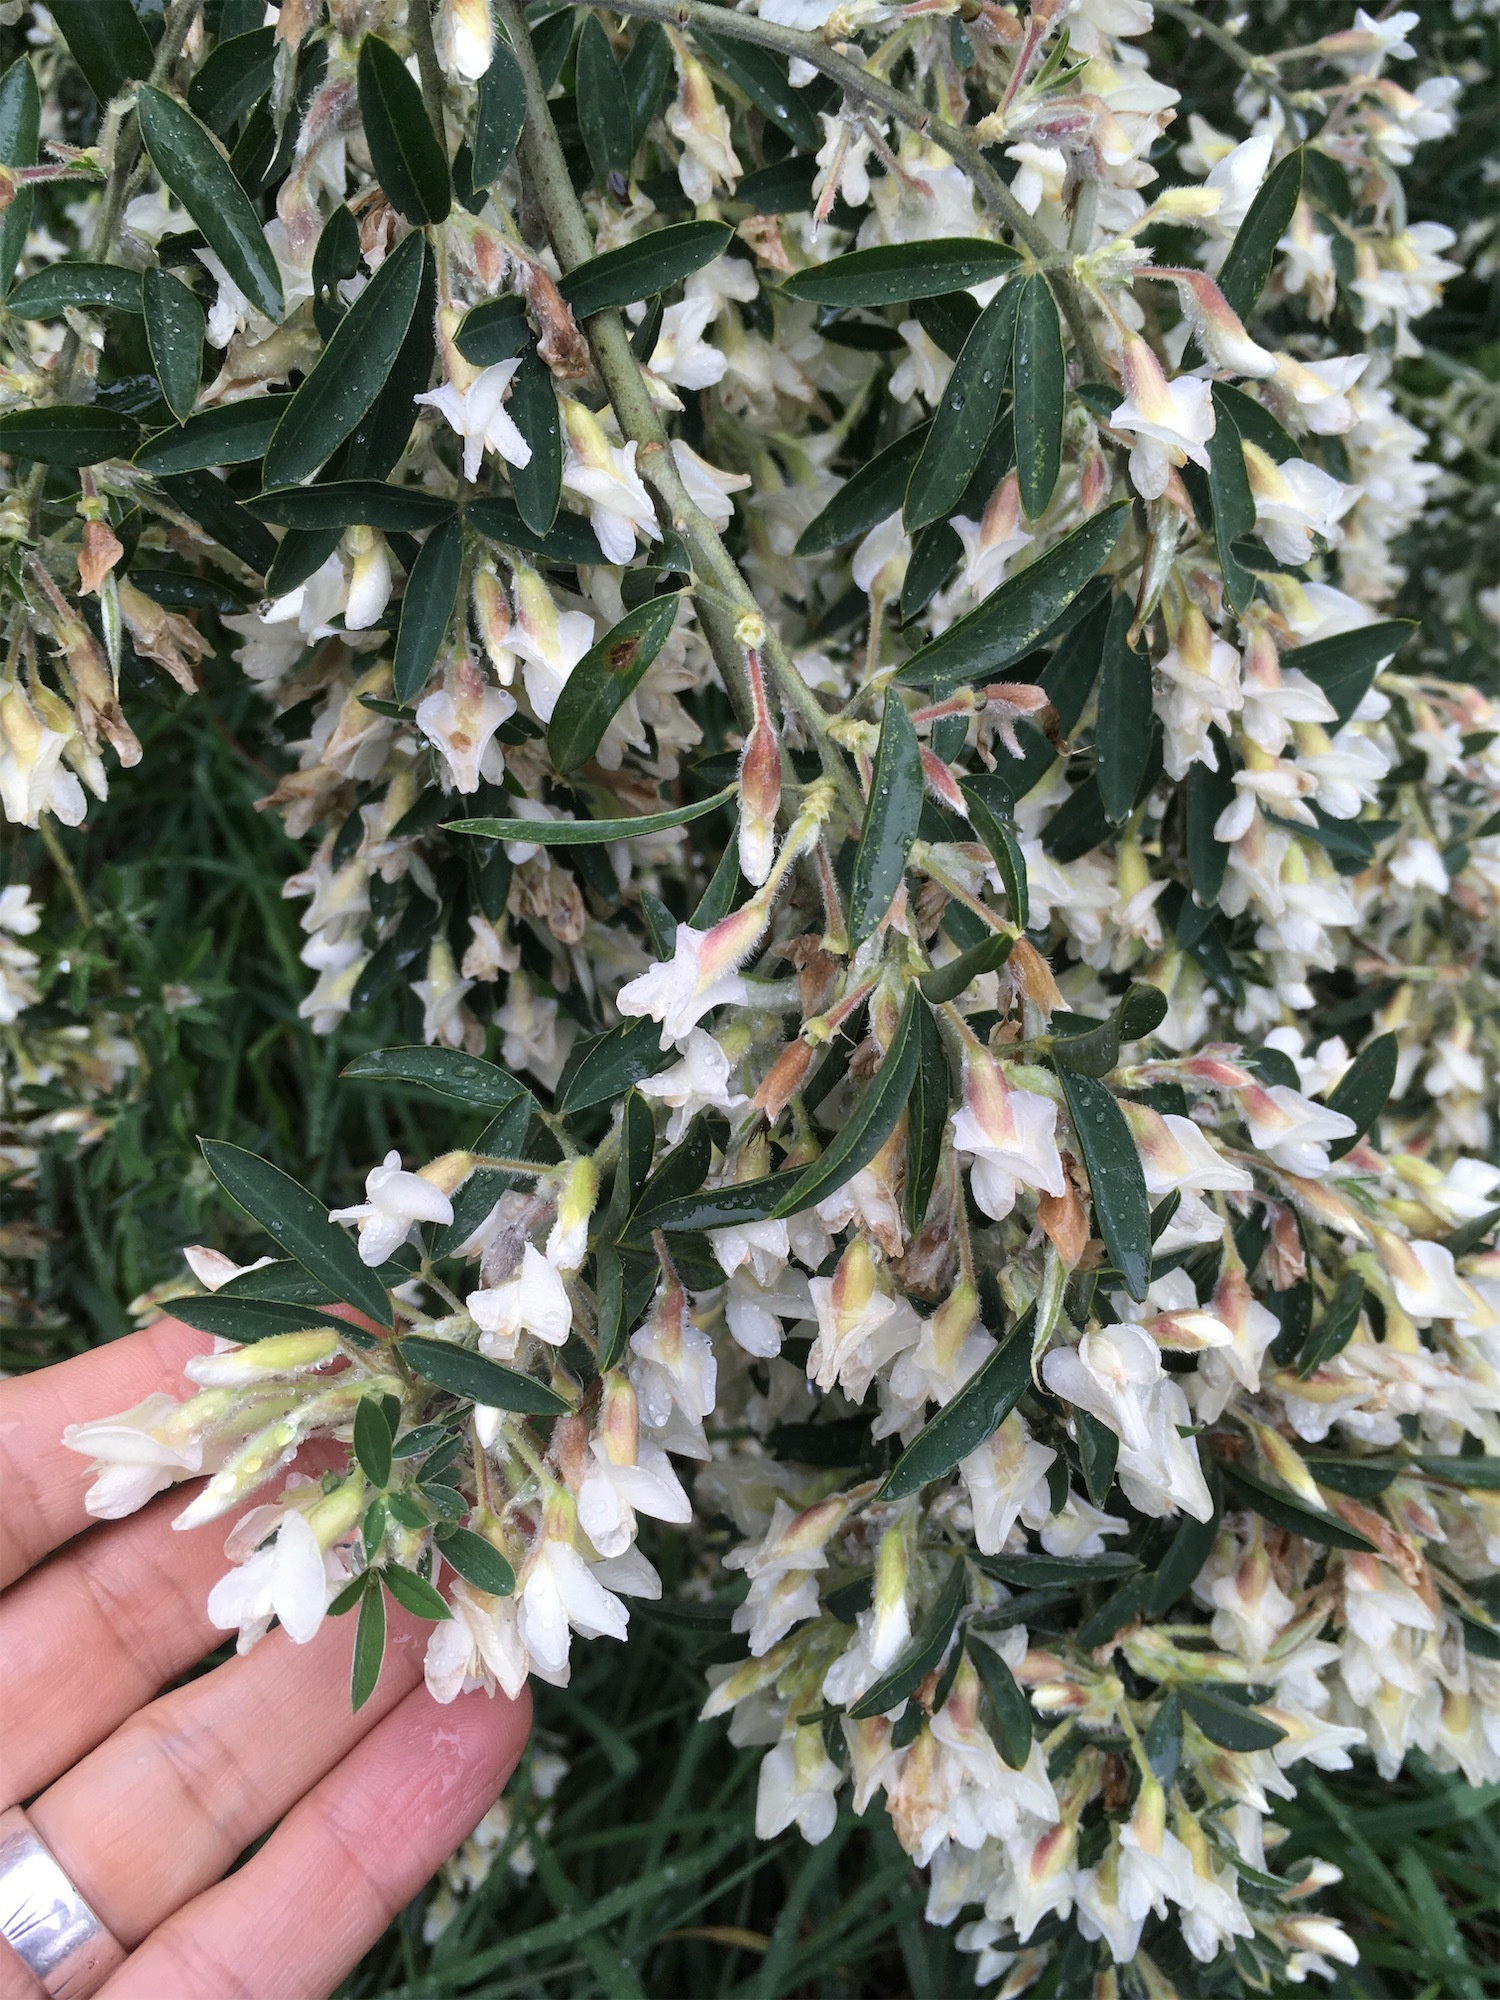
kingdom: Plantae
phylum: Tracheophyta
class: Magnoliopsida
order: Fabales
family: Fabaceae
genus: Chamaecytisus
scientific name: Chamaecytisus prolifer
